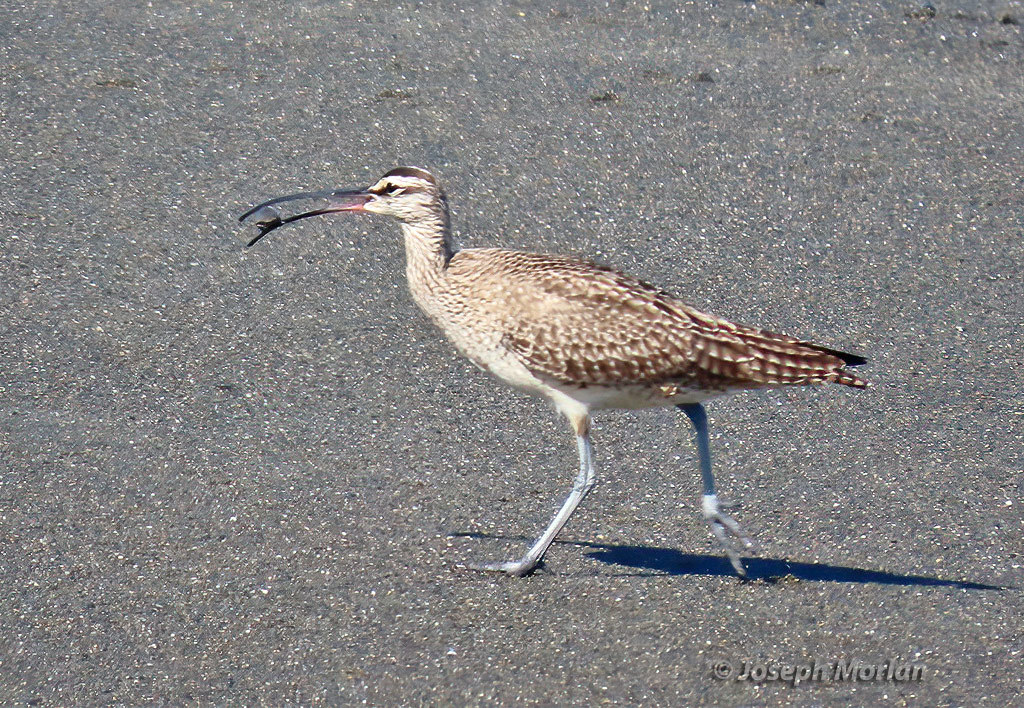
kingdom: Animalia
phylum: Chordata
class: Aves
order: Charadriiformes
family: Scolopacidae
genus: Numenius
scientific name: Numenius phaeopus
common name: Whimbrel
